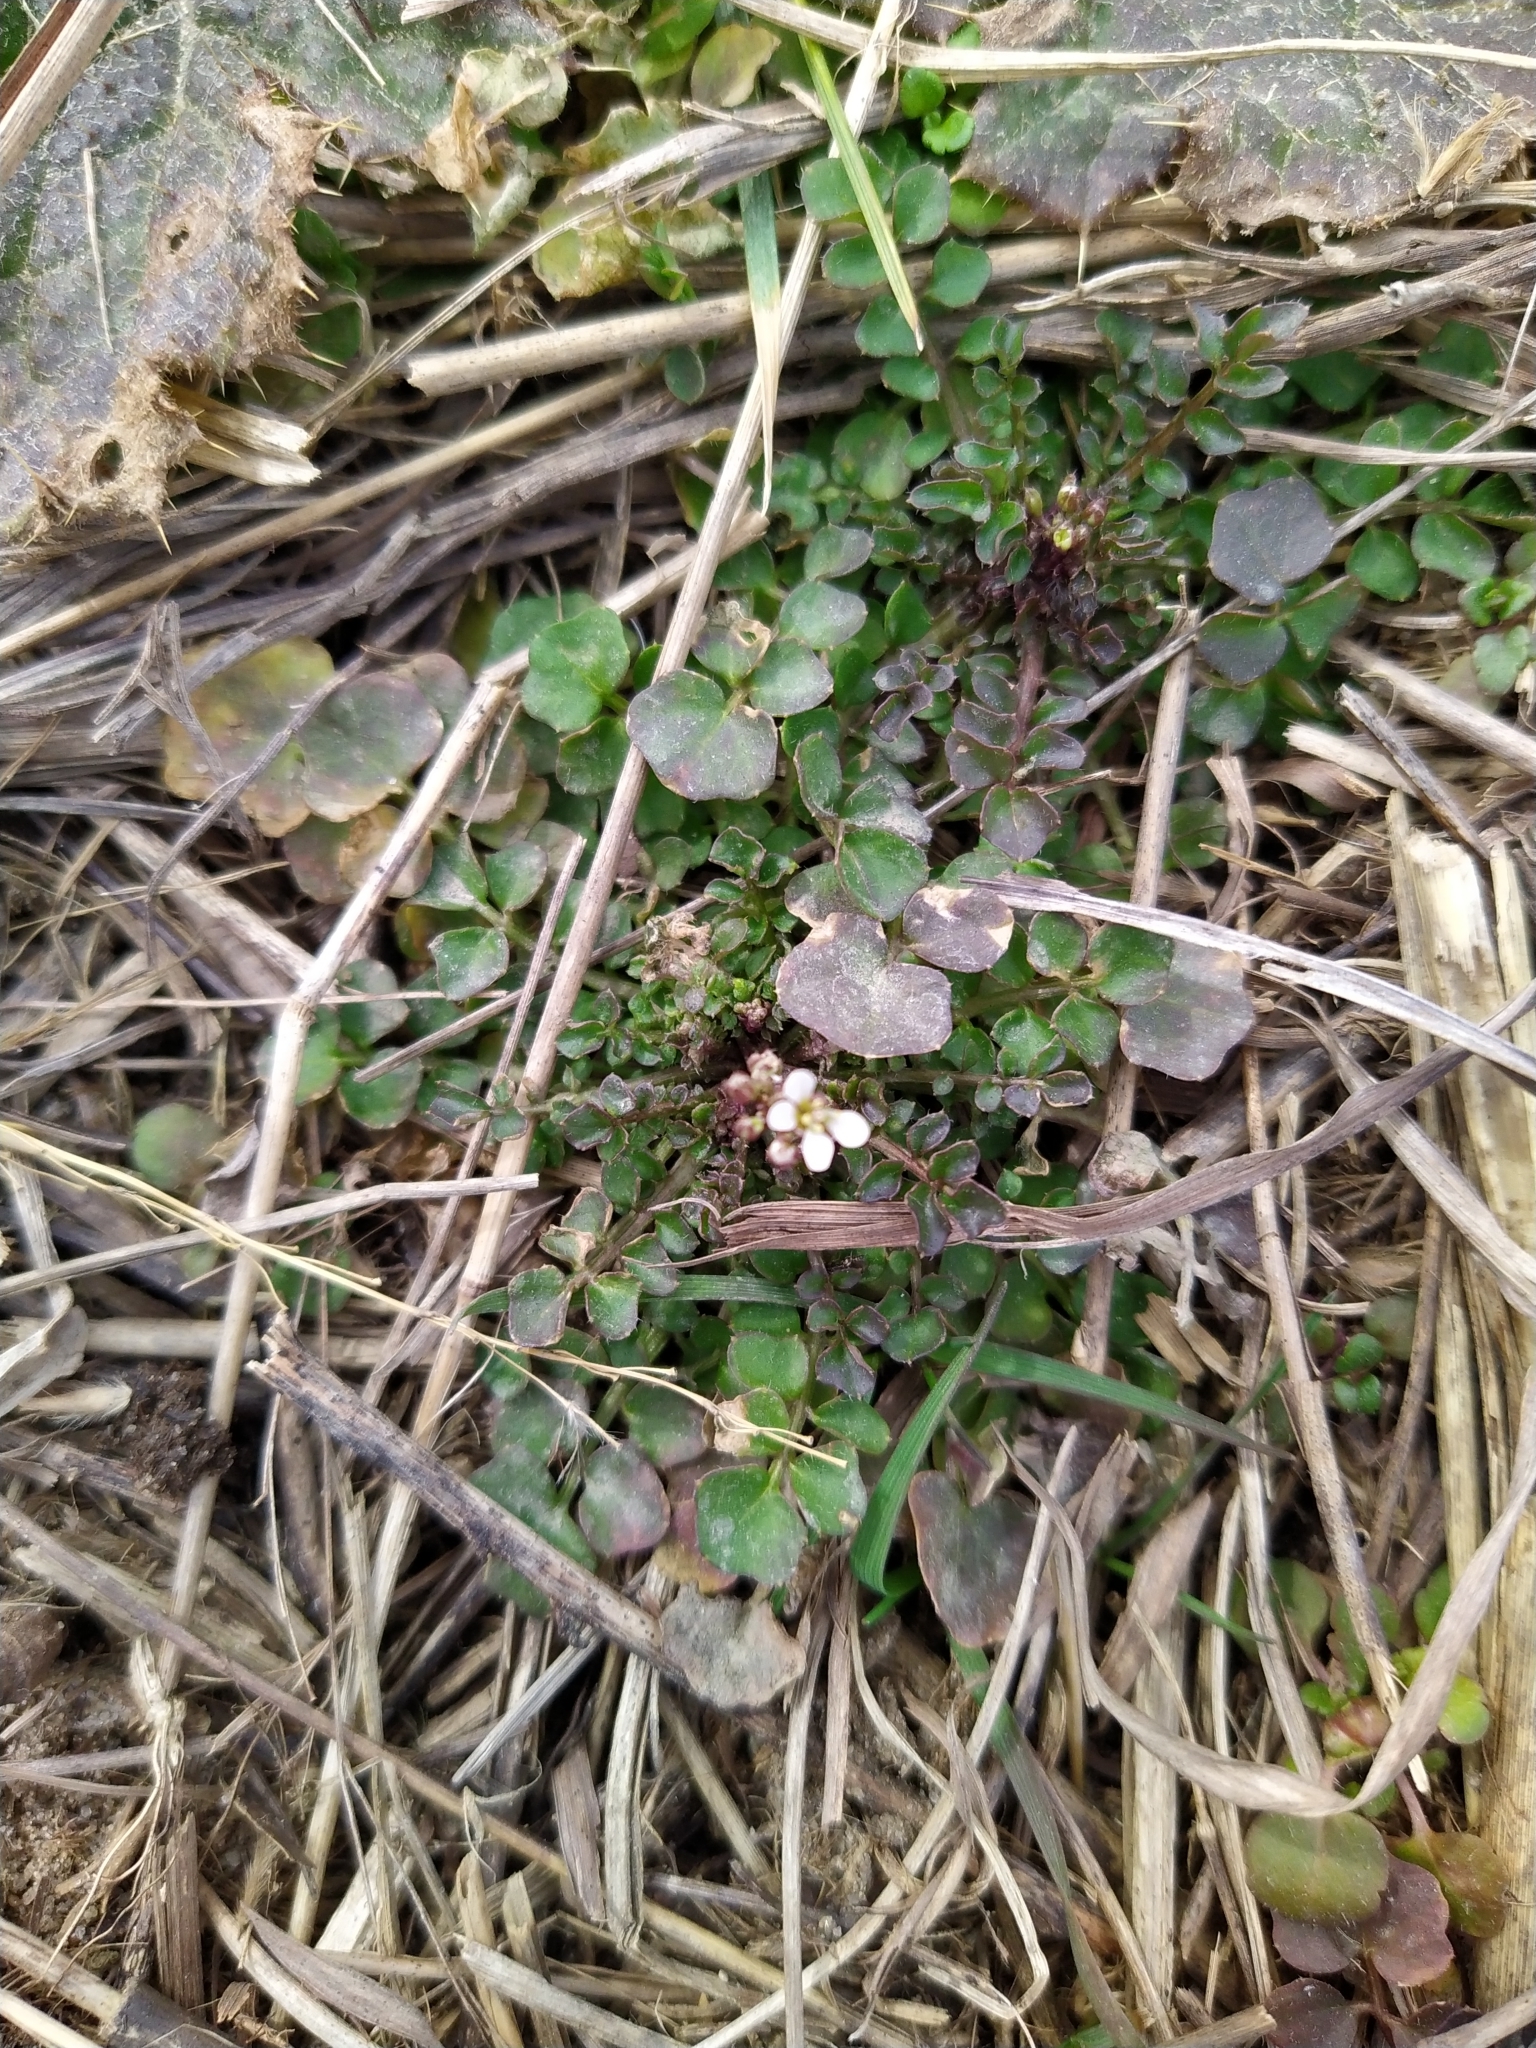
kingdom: Plantae
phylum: Tracheophyta
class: Magnoliopsida
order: Brassicales
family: Brassicaceae
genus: Cardamine
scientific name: Cardamine hirsuta
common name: Hairy bittercress
